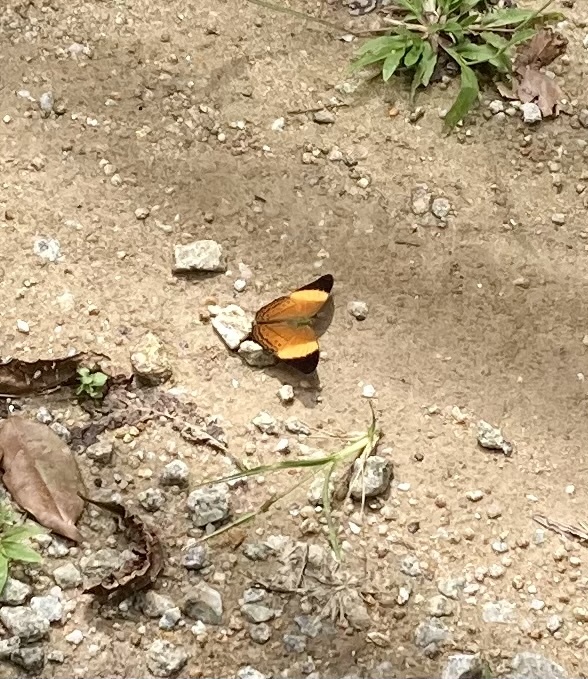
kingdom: Animalia
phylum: Arthropoda
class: Insecta
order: Lepidoptera
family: Nymphalidae
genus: Cirrochroa
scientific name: Cirrochroa orissa
